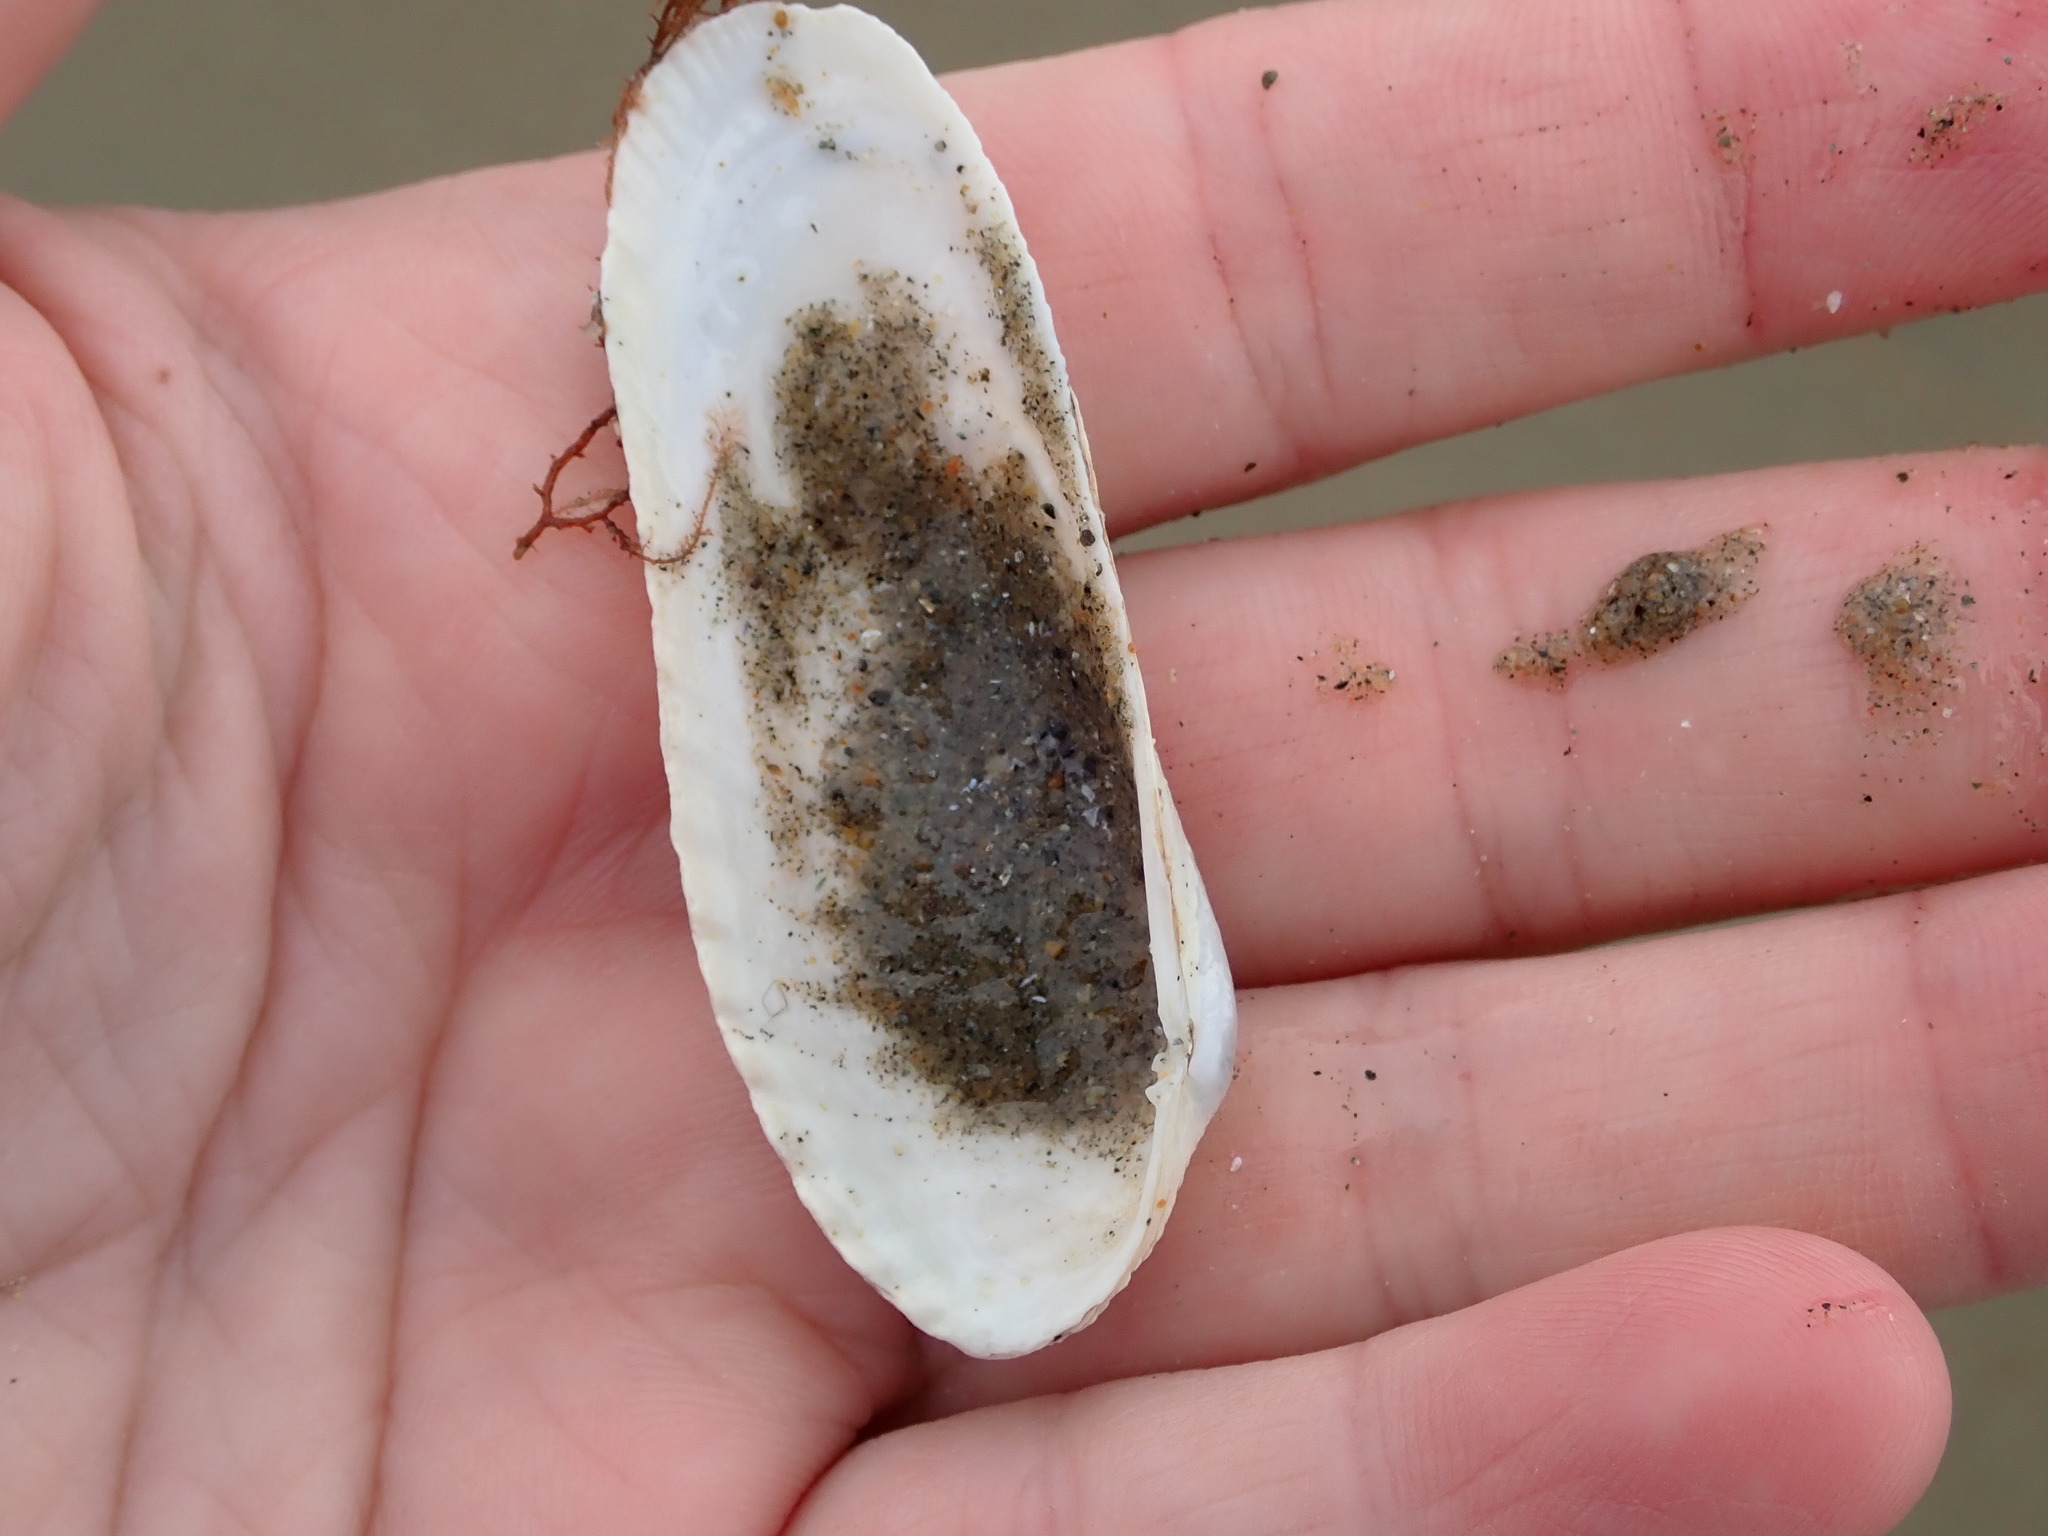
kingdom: Animalia
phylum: Mollusca
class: Bivalvia
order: Venerida
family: Veneridae
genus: Petricolaria
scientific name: Petricolaria pholadiformis
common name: American piddock
